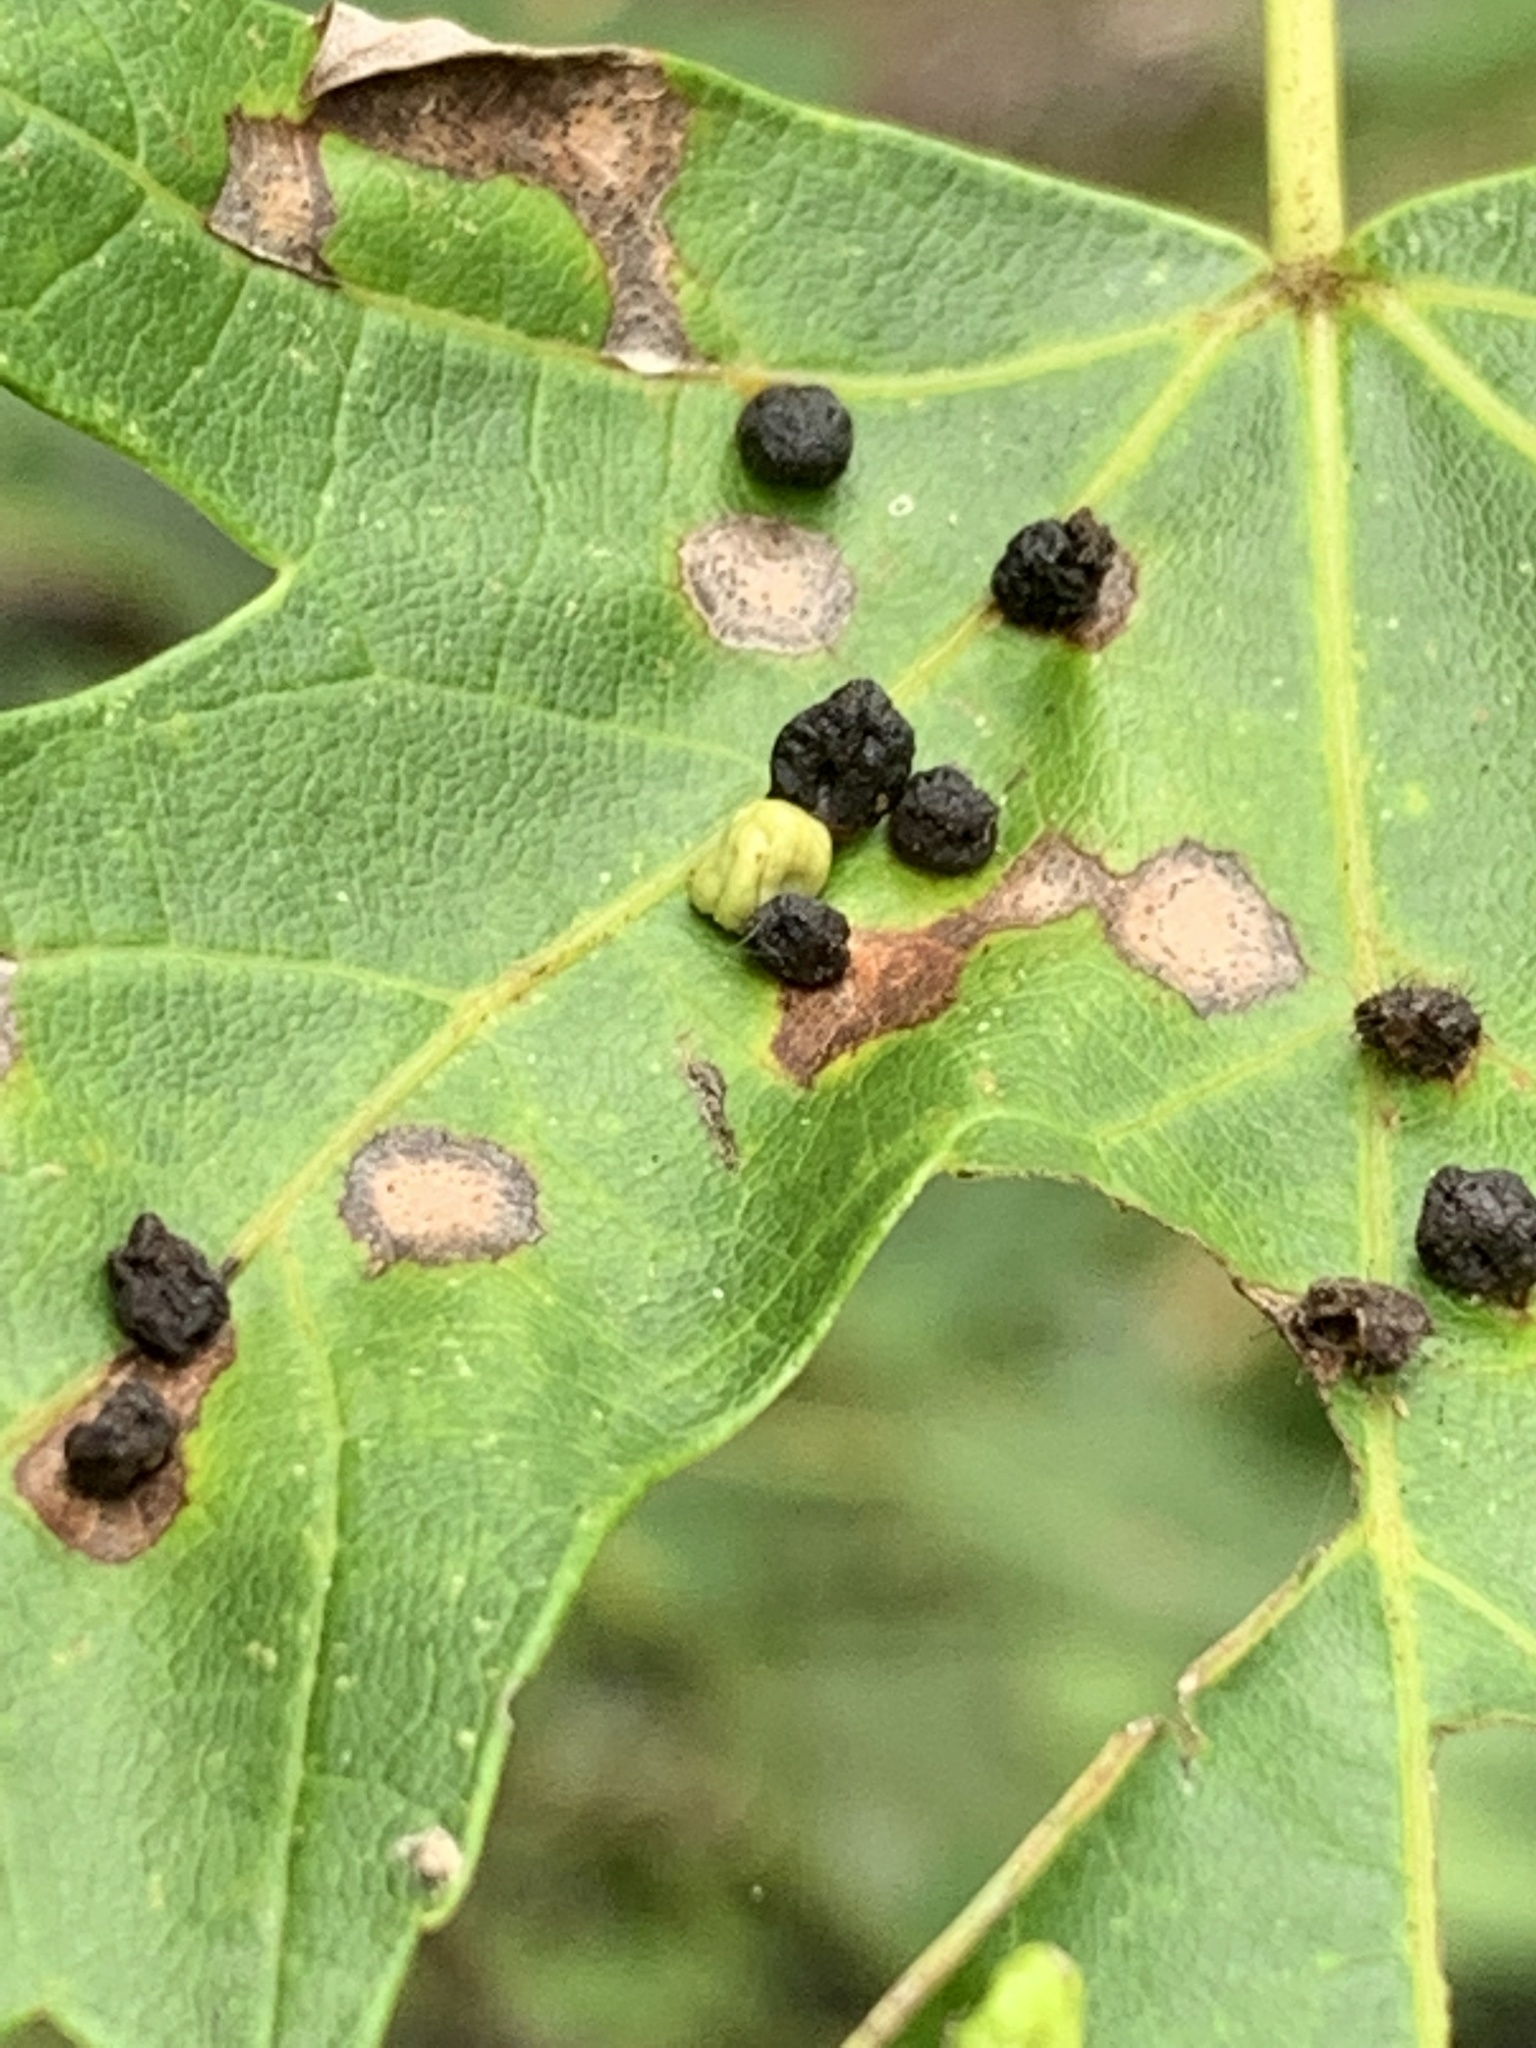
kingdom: Animalia
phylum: Arthropoda
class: Arachnida
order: Trombidiformes
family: Eriophyidae
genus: Vasates
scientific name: Vasates quadripedes
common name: Maple bladder gall mite
